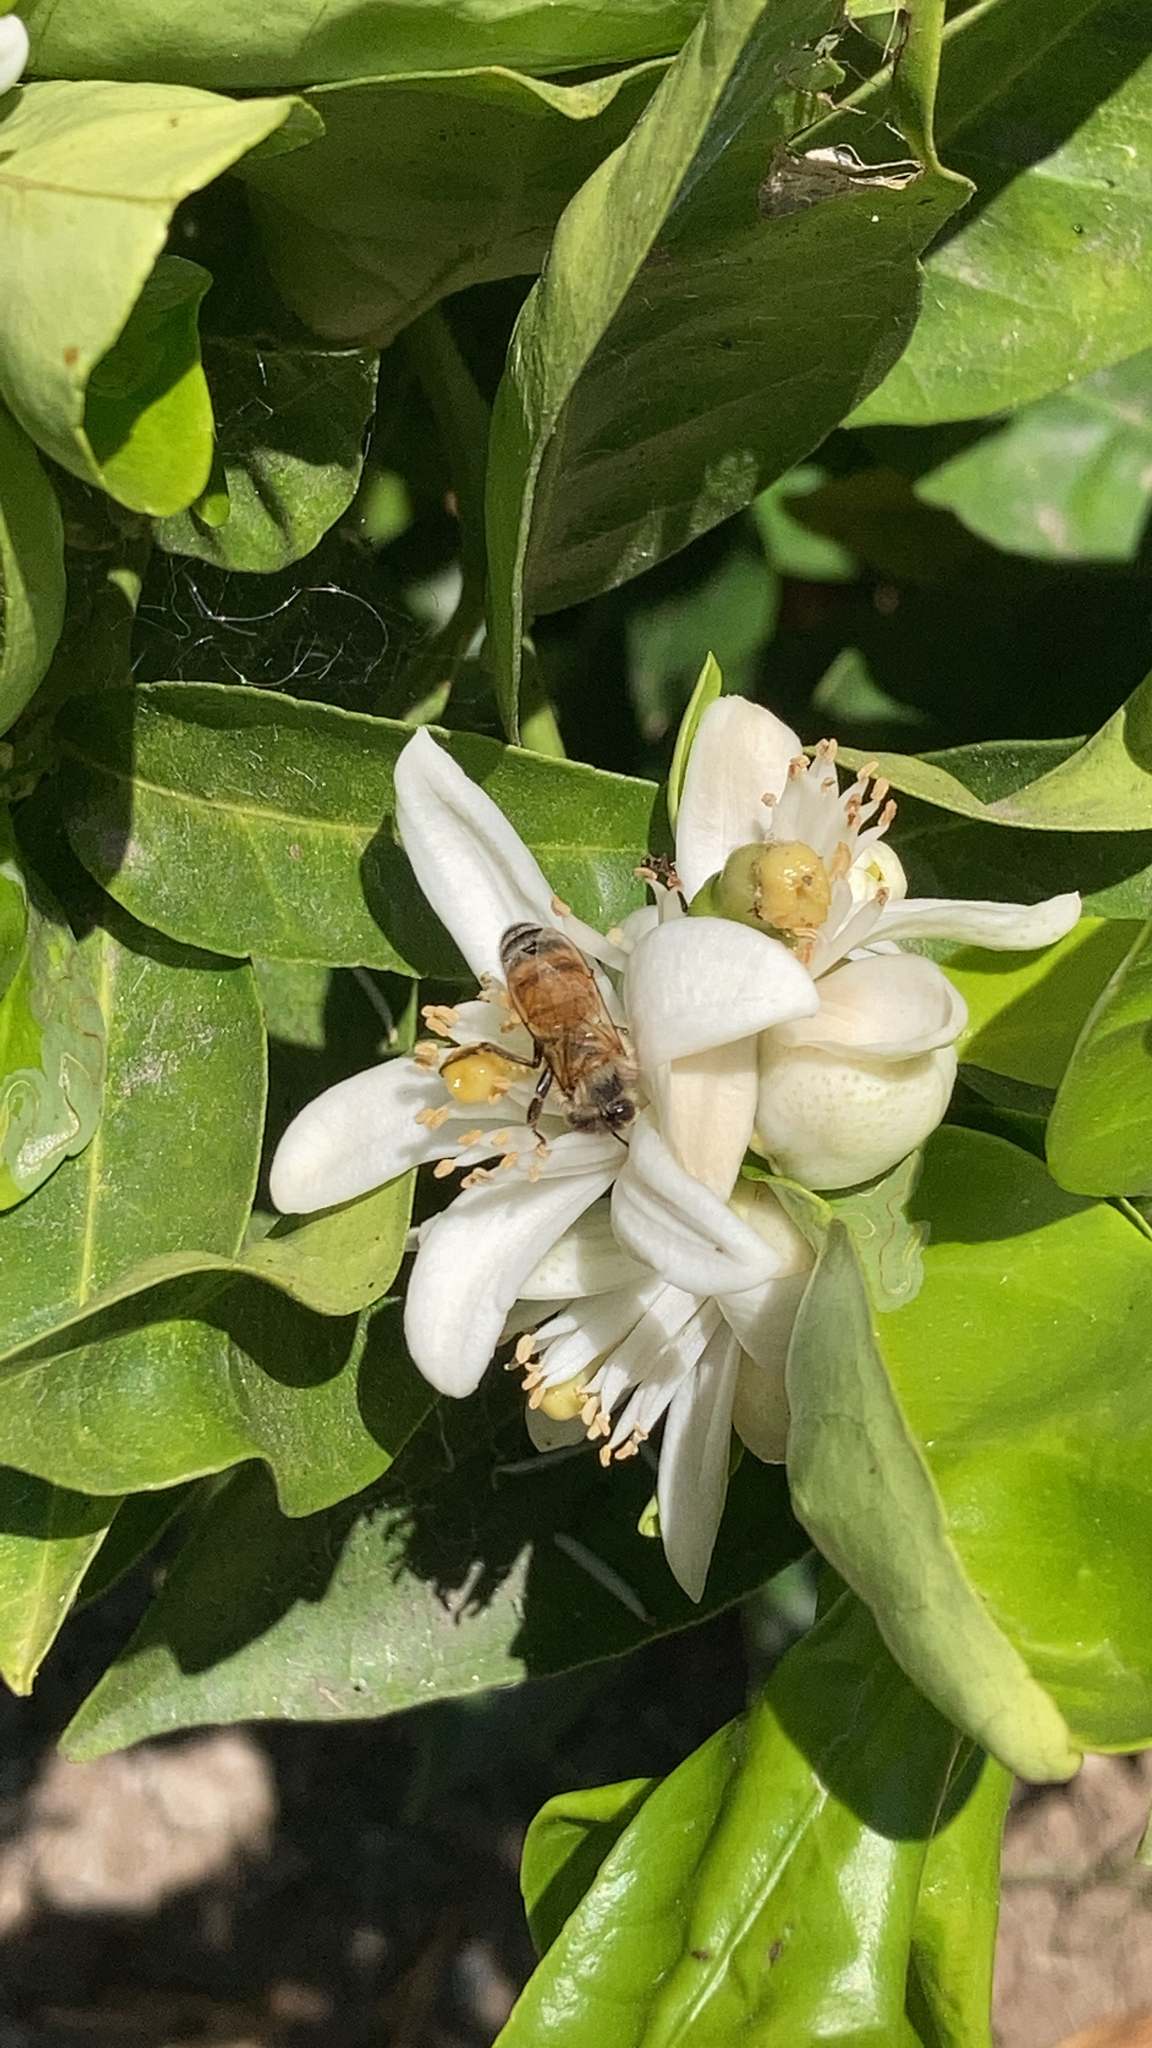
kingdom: Animalia
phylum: Arthropoda
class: Insecta
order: Hymenoptera
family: Apidae
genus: Apis
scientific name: Apis mellifera
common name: Honey bee
